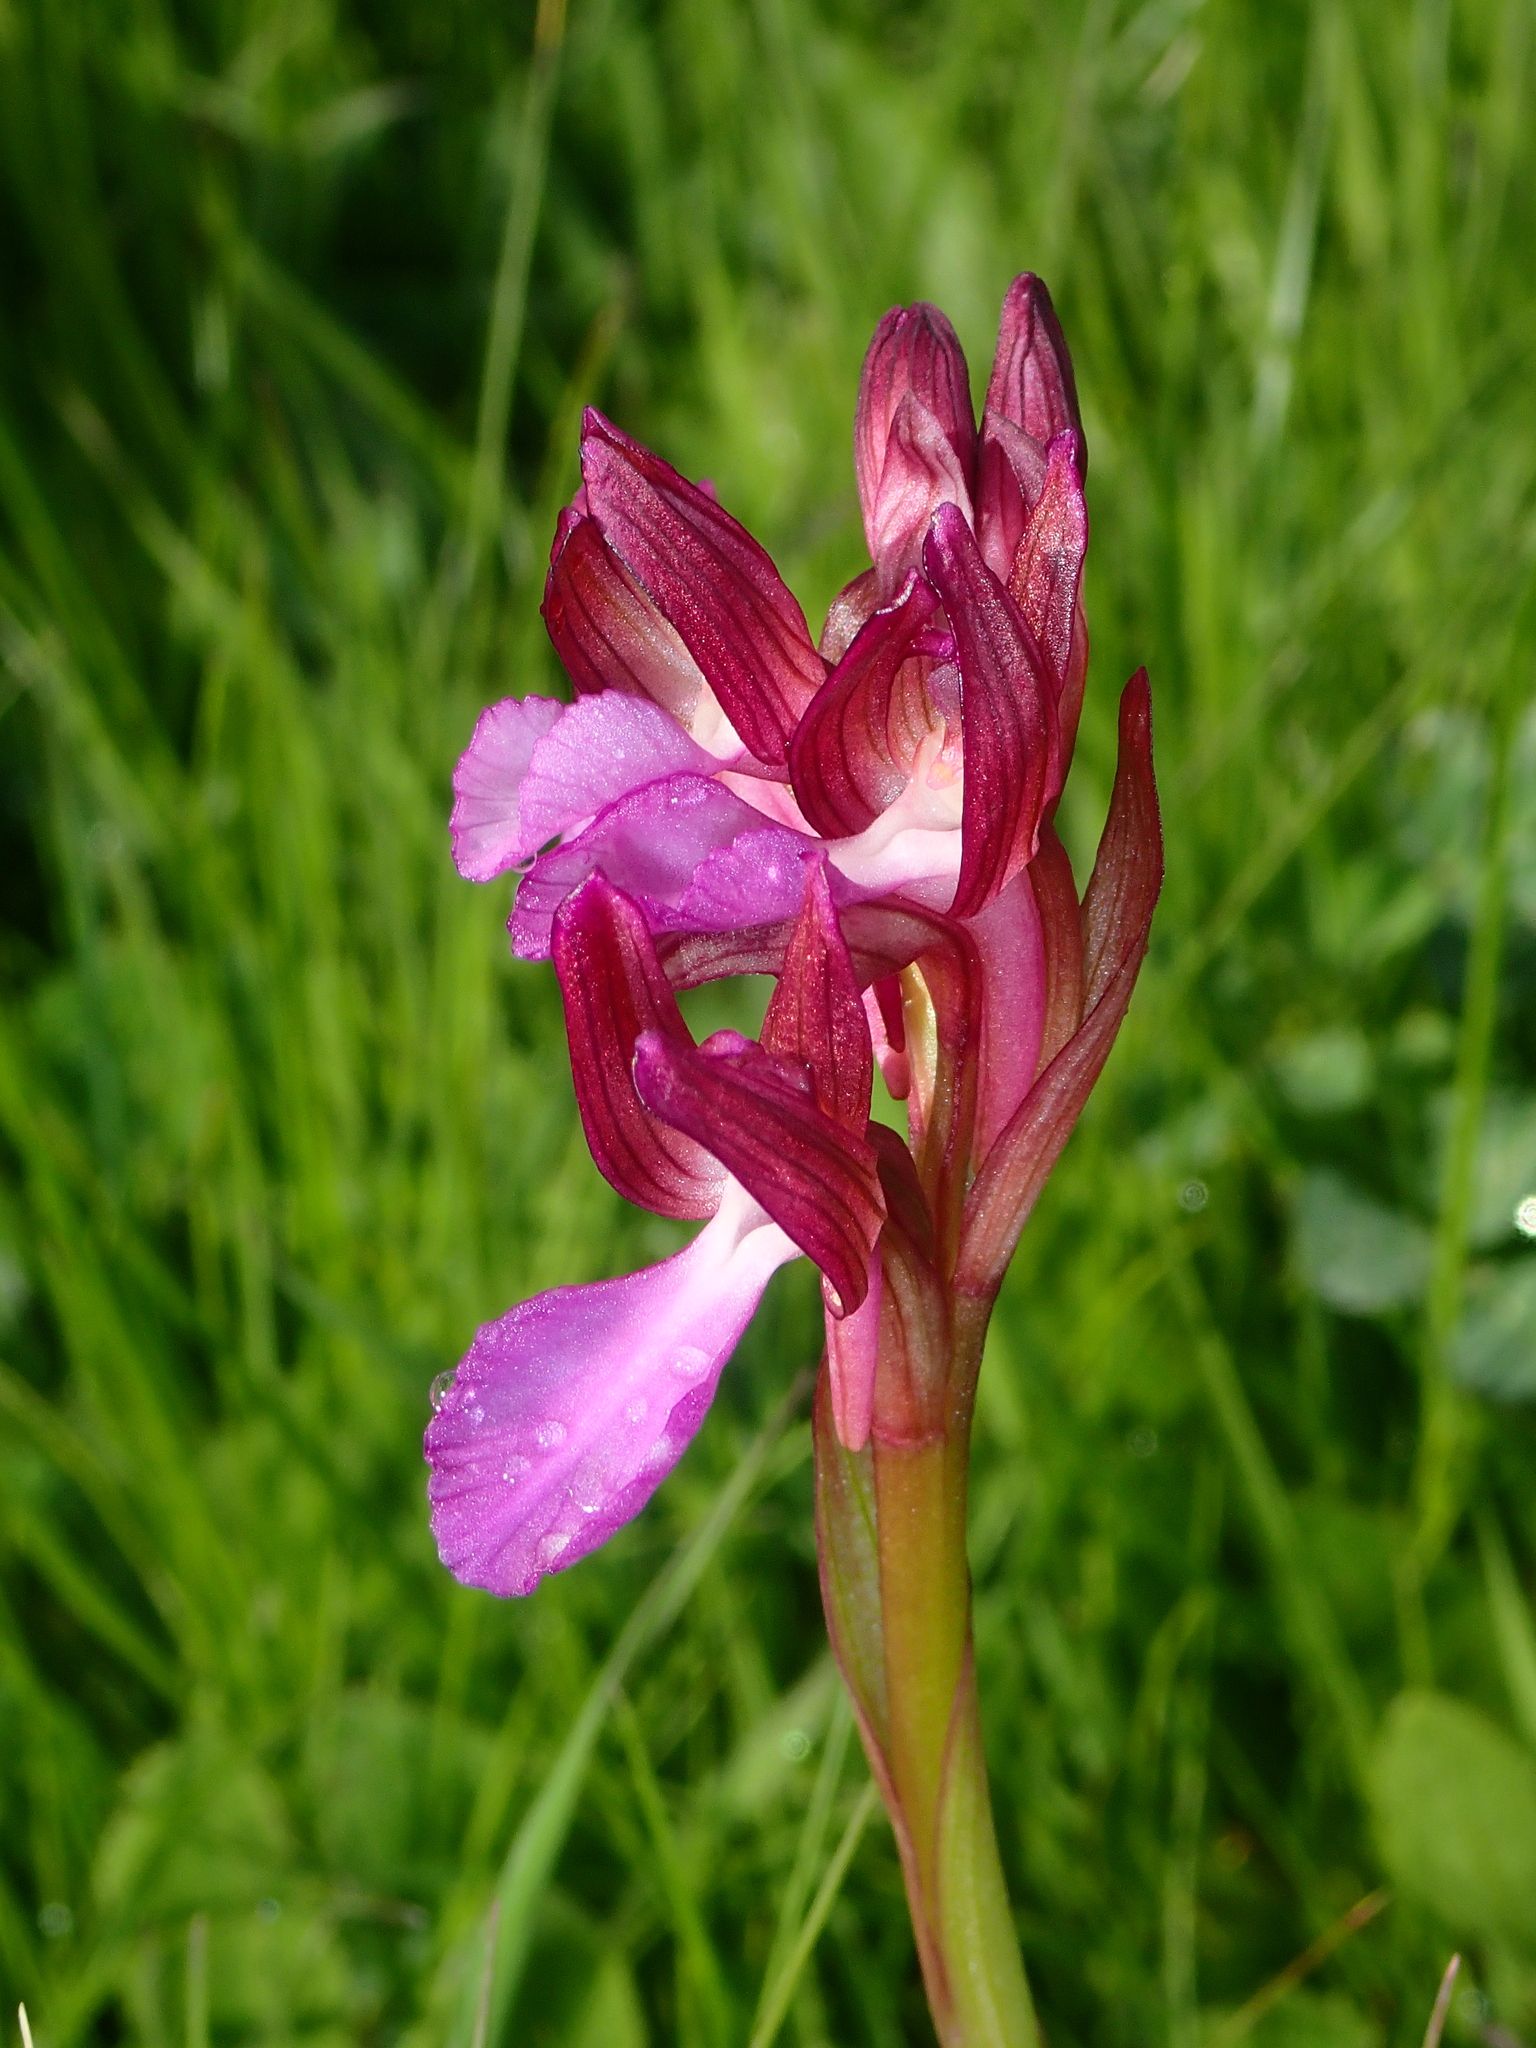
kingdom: Plantae
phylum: Tracheophyta
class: Liliopsida
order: Asparagales
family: Orchidaceae
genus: Anacamptis
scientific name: Anacamptis papilionacea
